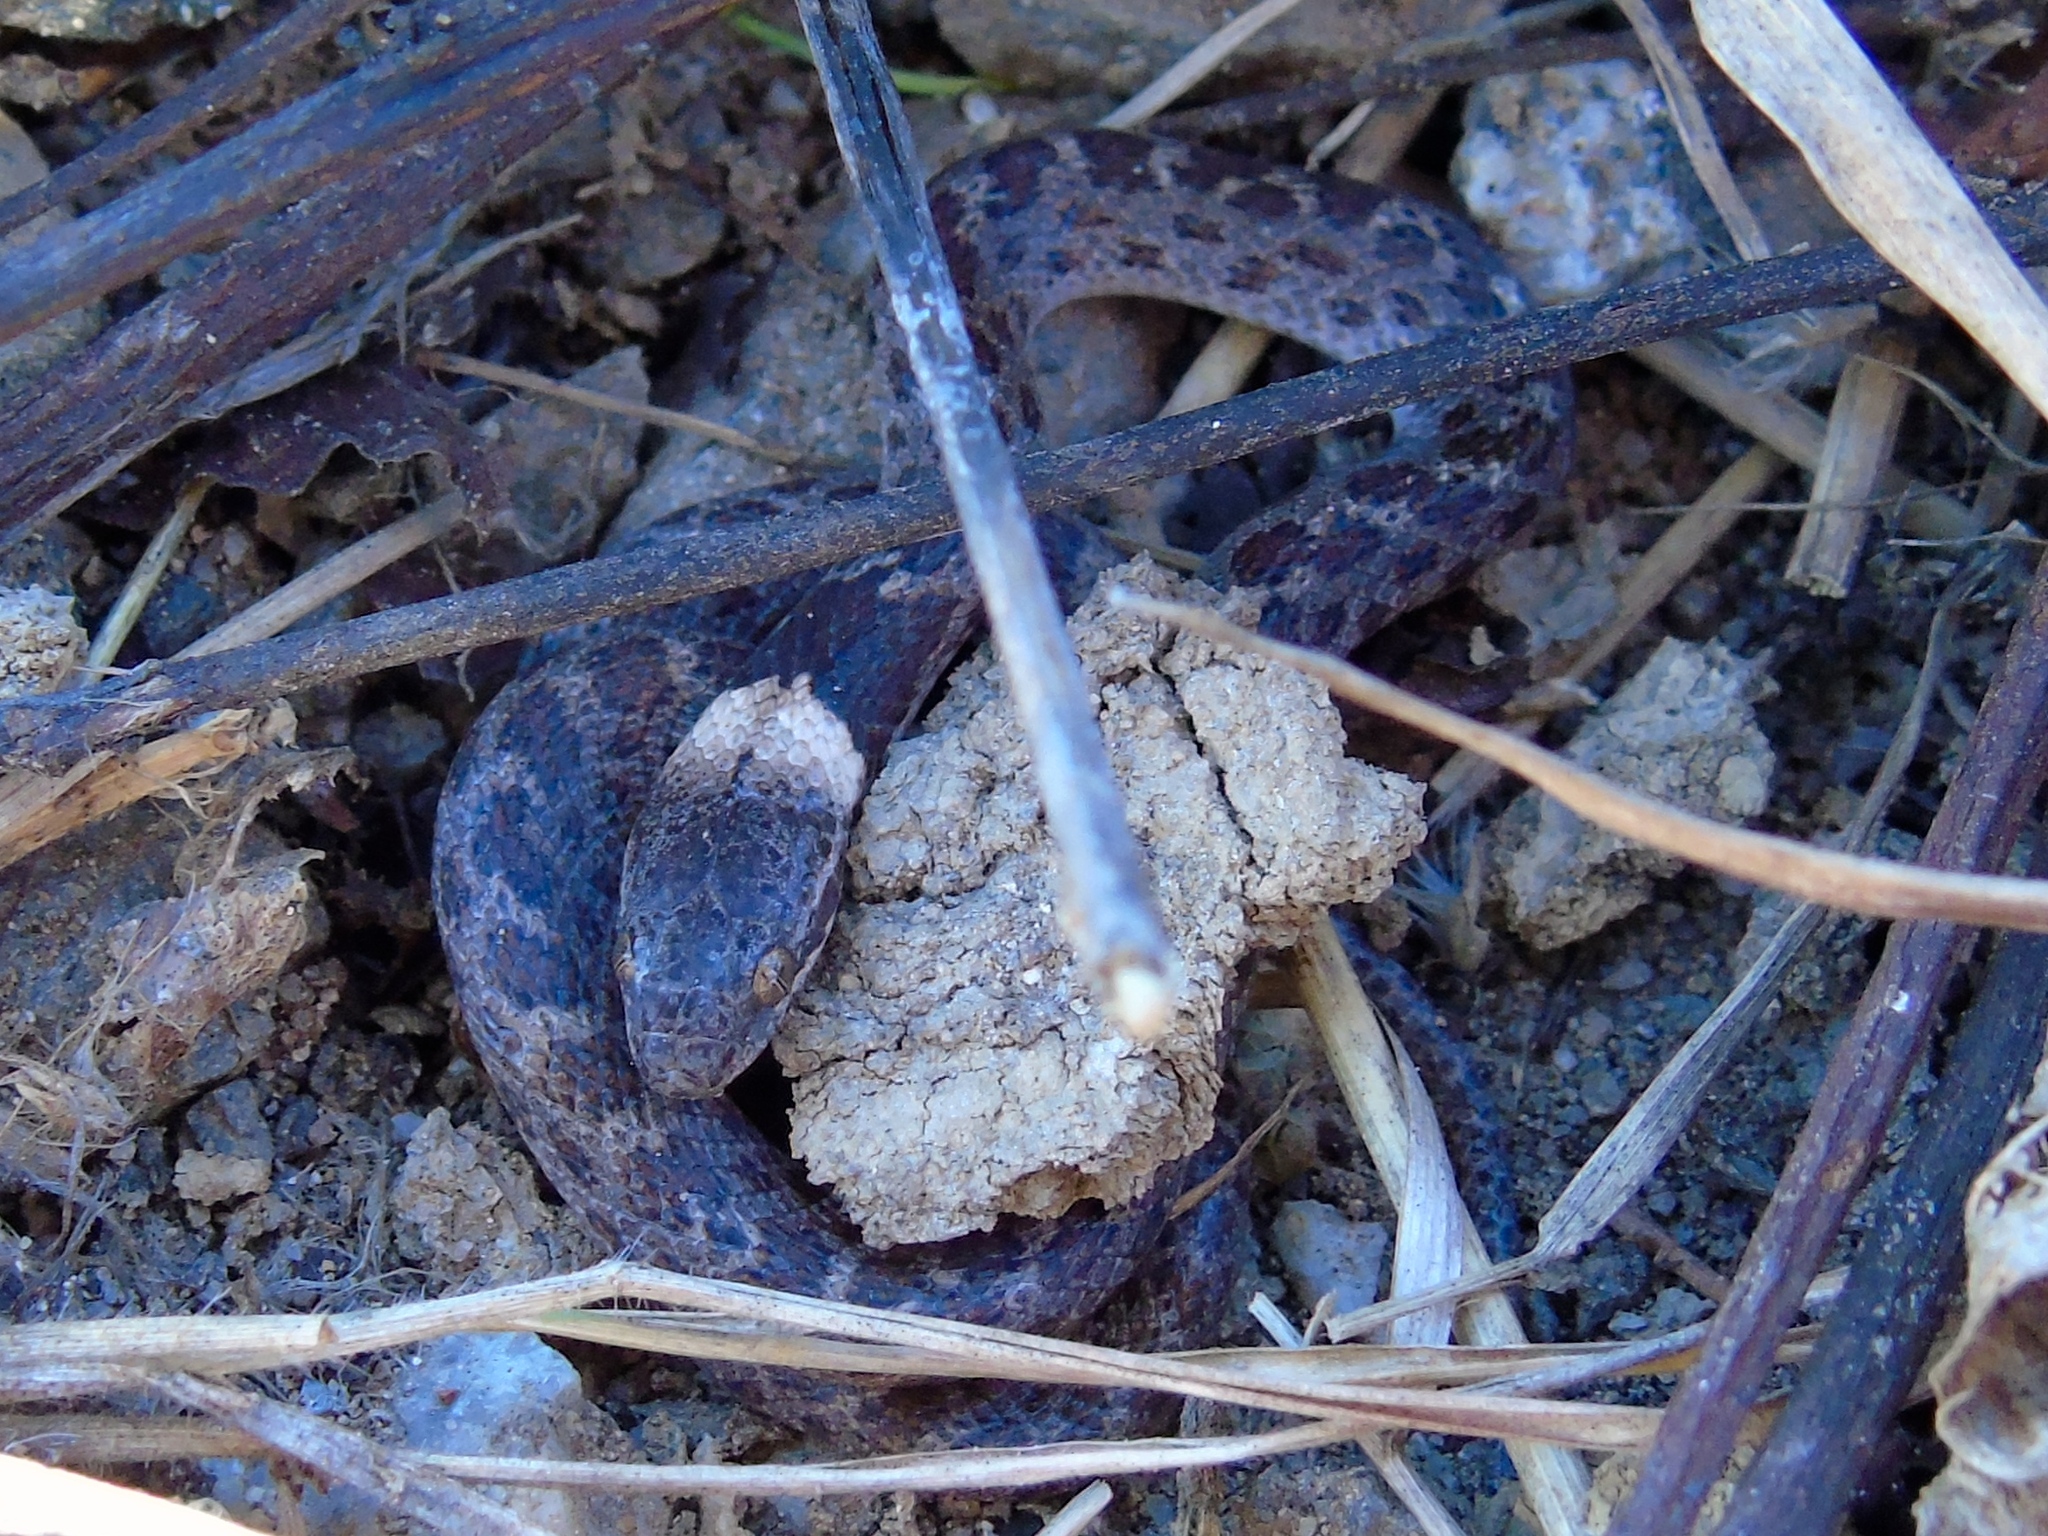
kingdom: Animalia
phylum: Chordata
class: Squamata
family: Colubridae
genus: Hypsiglena
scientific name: Hypsiglena torquata
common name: Night snake
